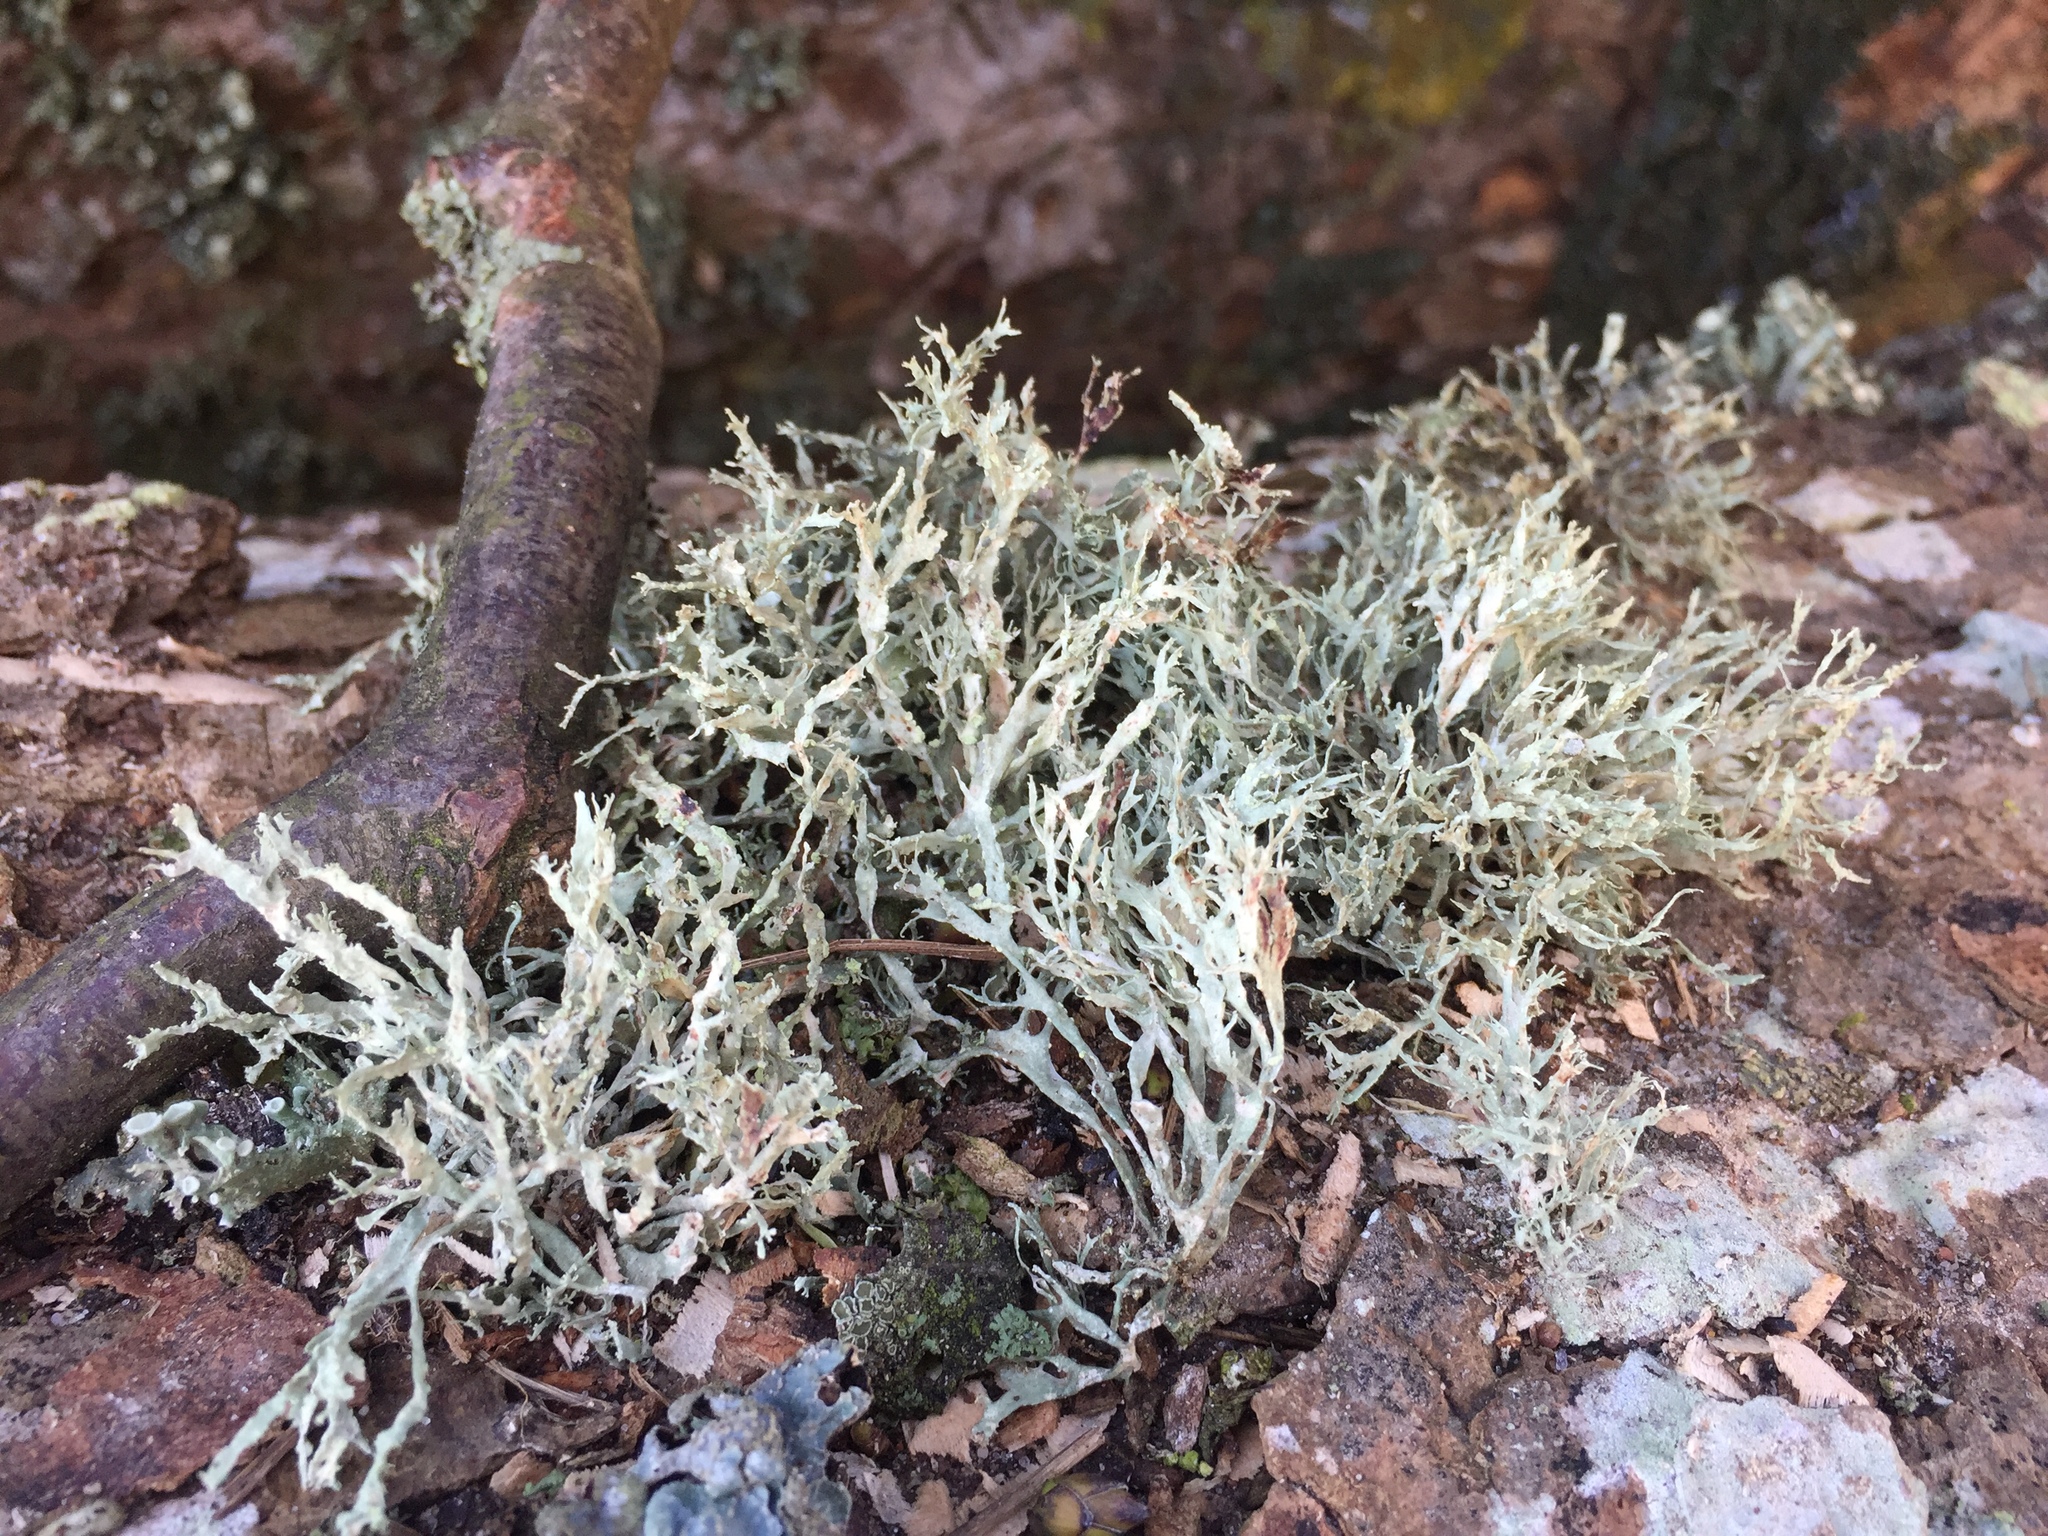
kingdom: Fungi
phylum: Ascomycota
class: Lecanoromycetes
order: Lecanorales
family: Ramalinaceae
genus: Ramalina
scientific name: Ramalina farinacea
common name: Farinose cartilage lichen
